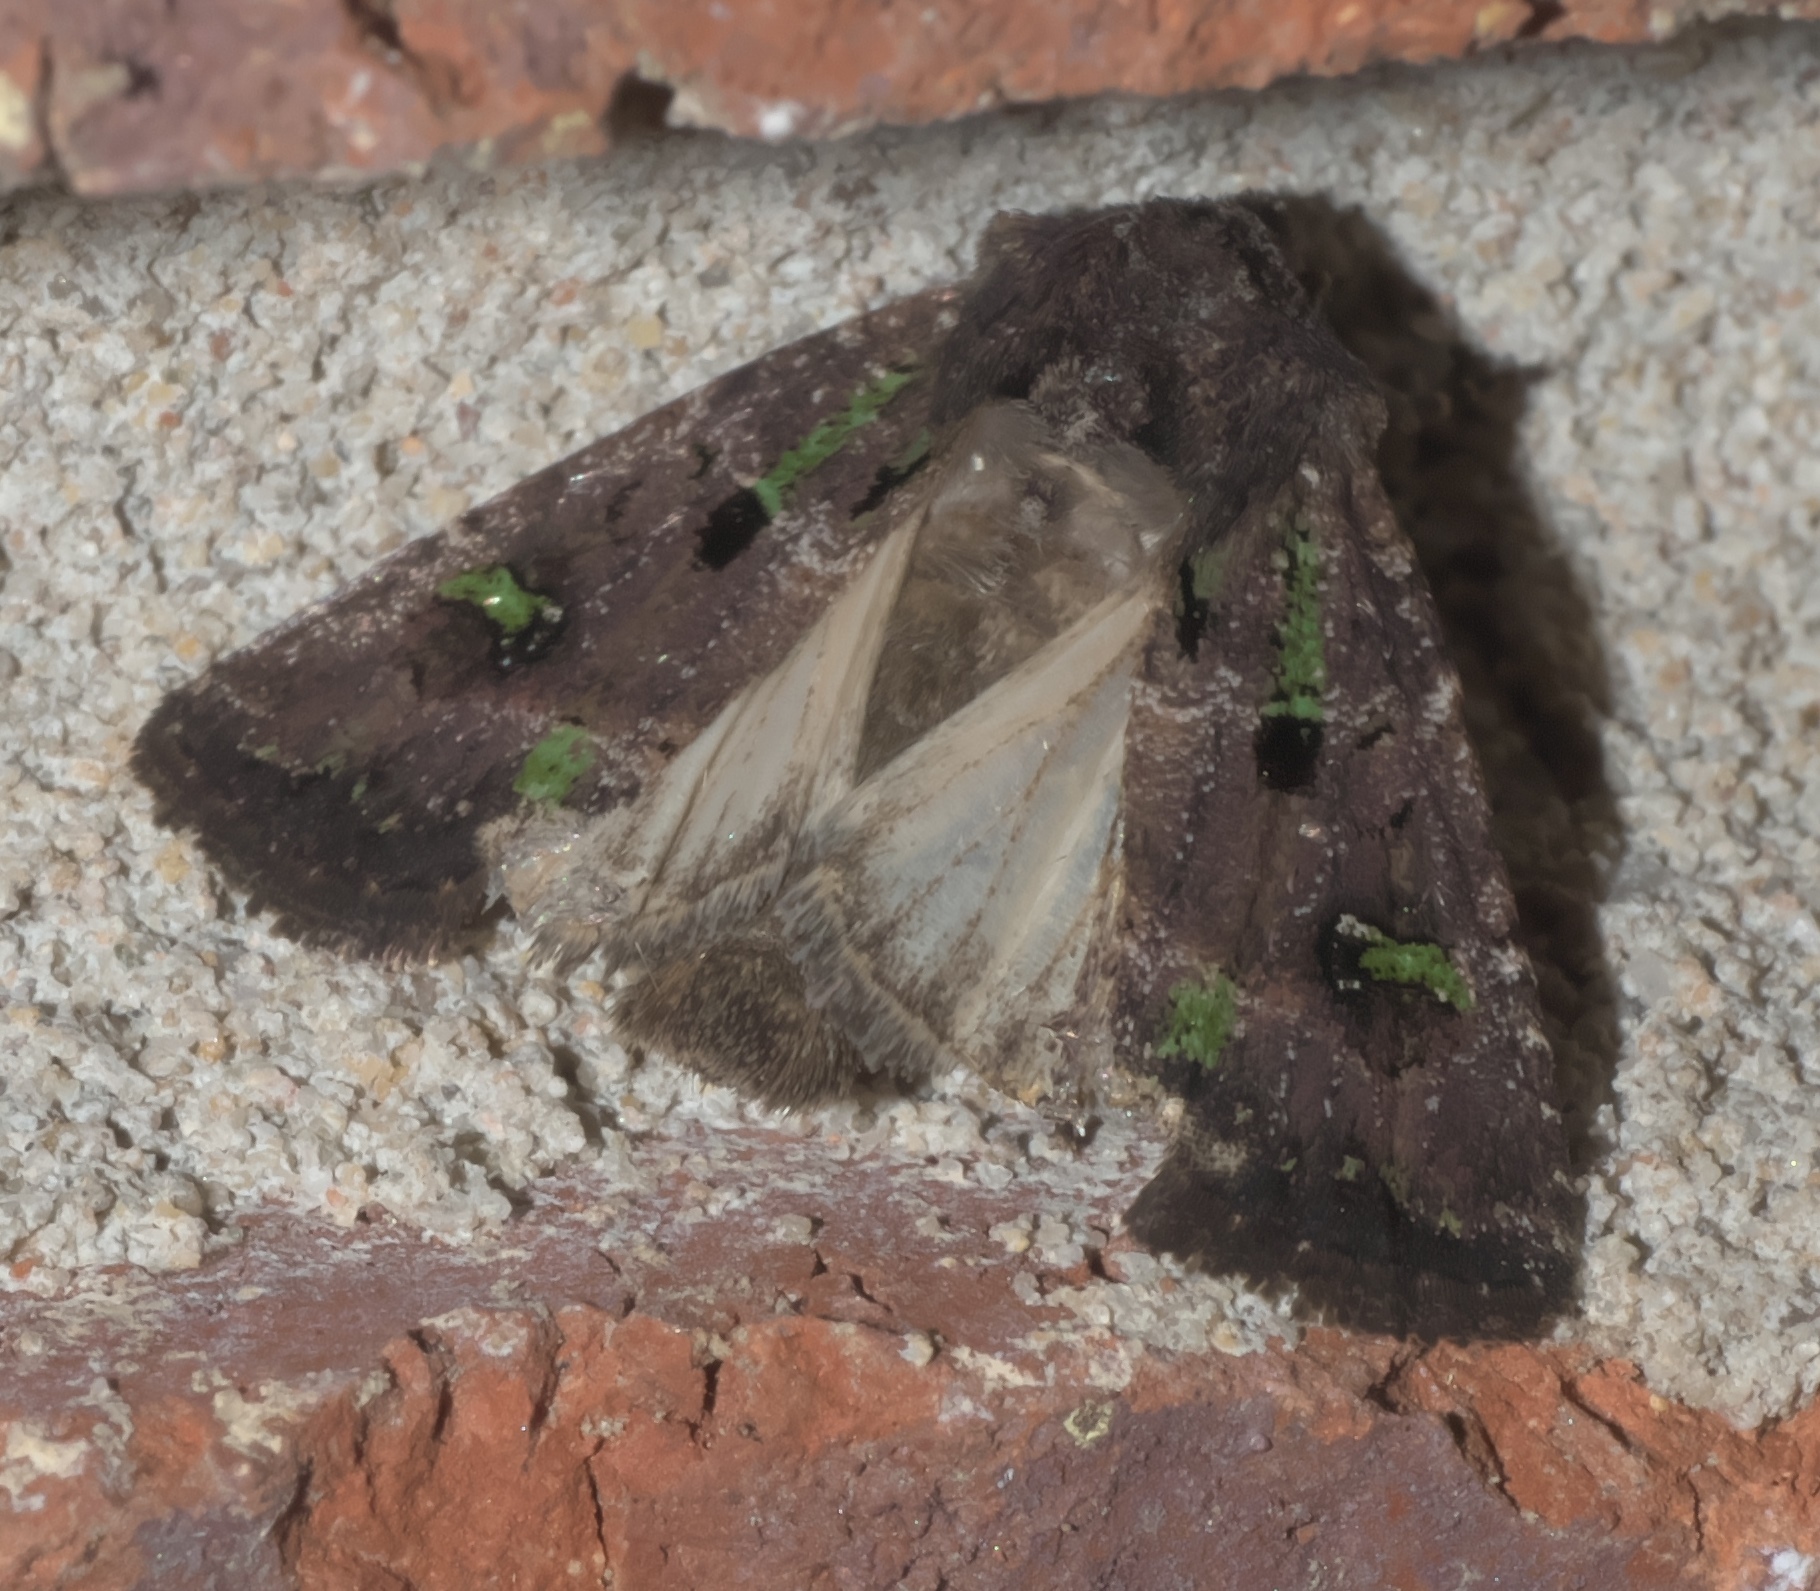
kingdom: Animalia
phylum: Arthropoda
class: Insecta
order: Lepidoptera
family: Noctuidae
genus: Lacinipolia
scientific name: Lacinipolia renigera
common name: Kidney-spotted minor
